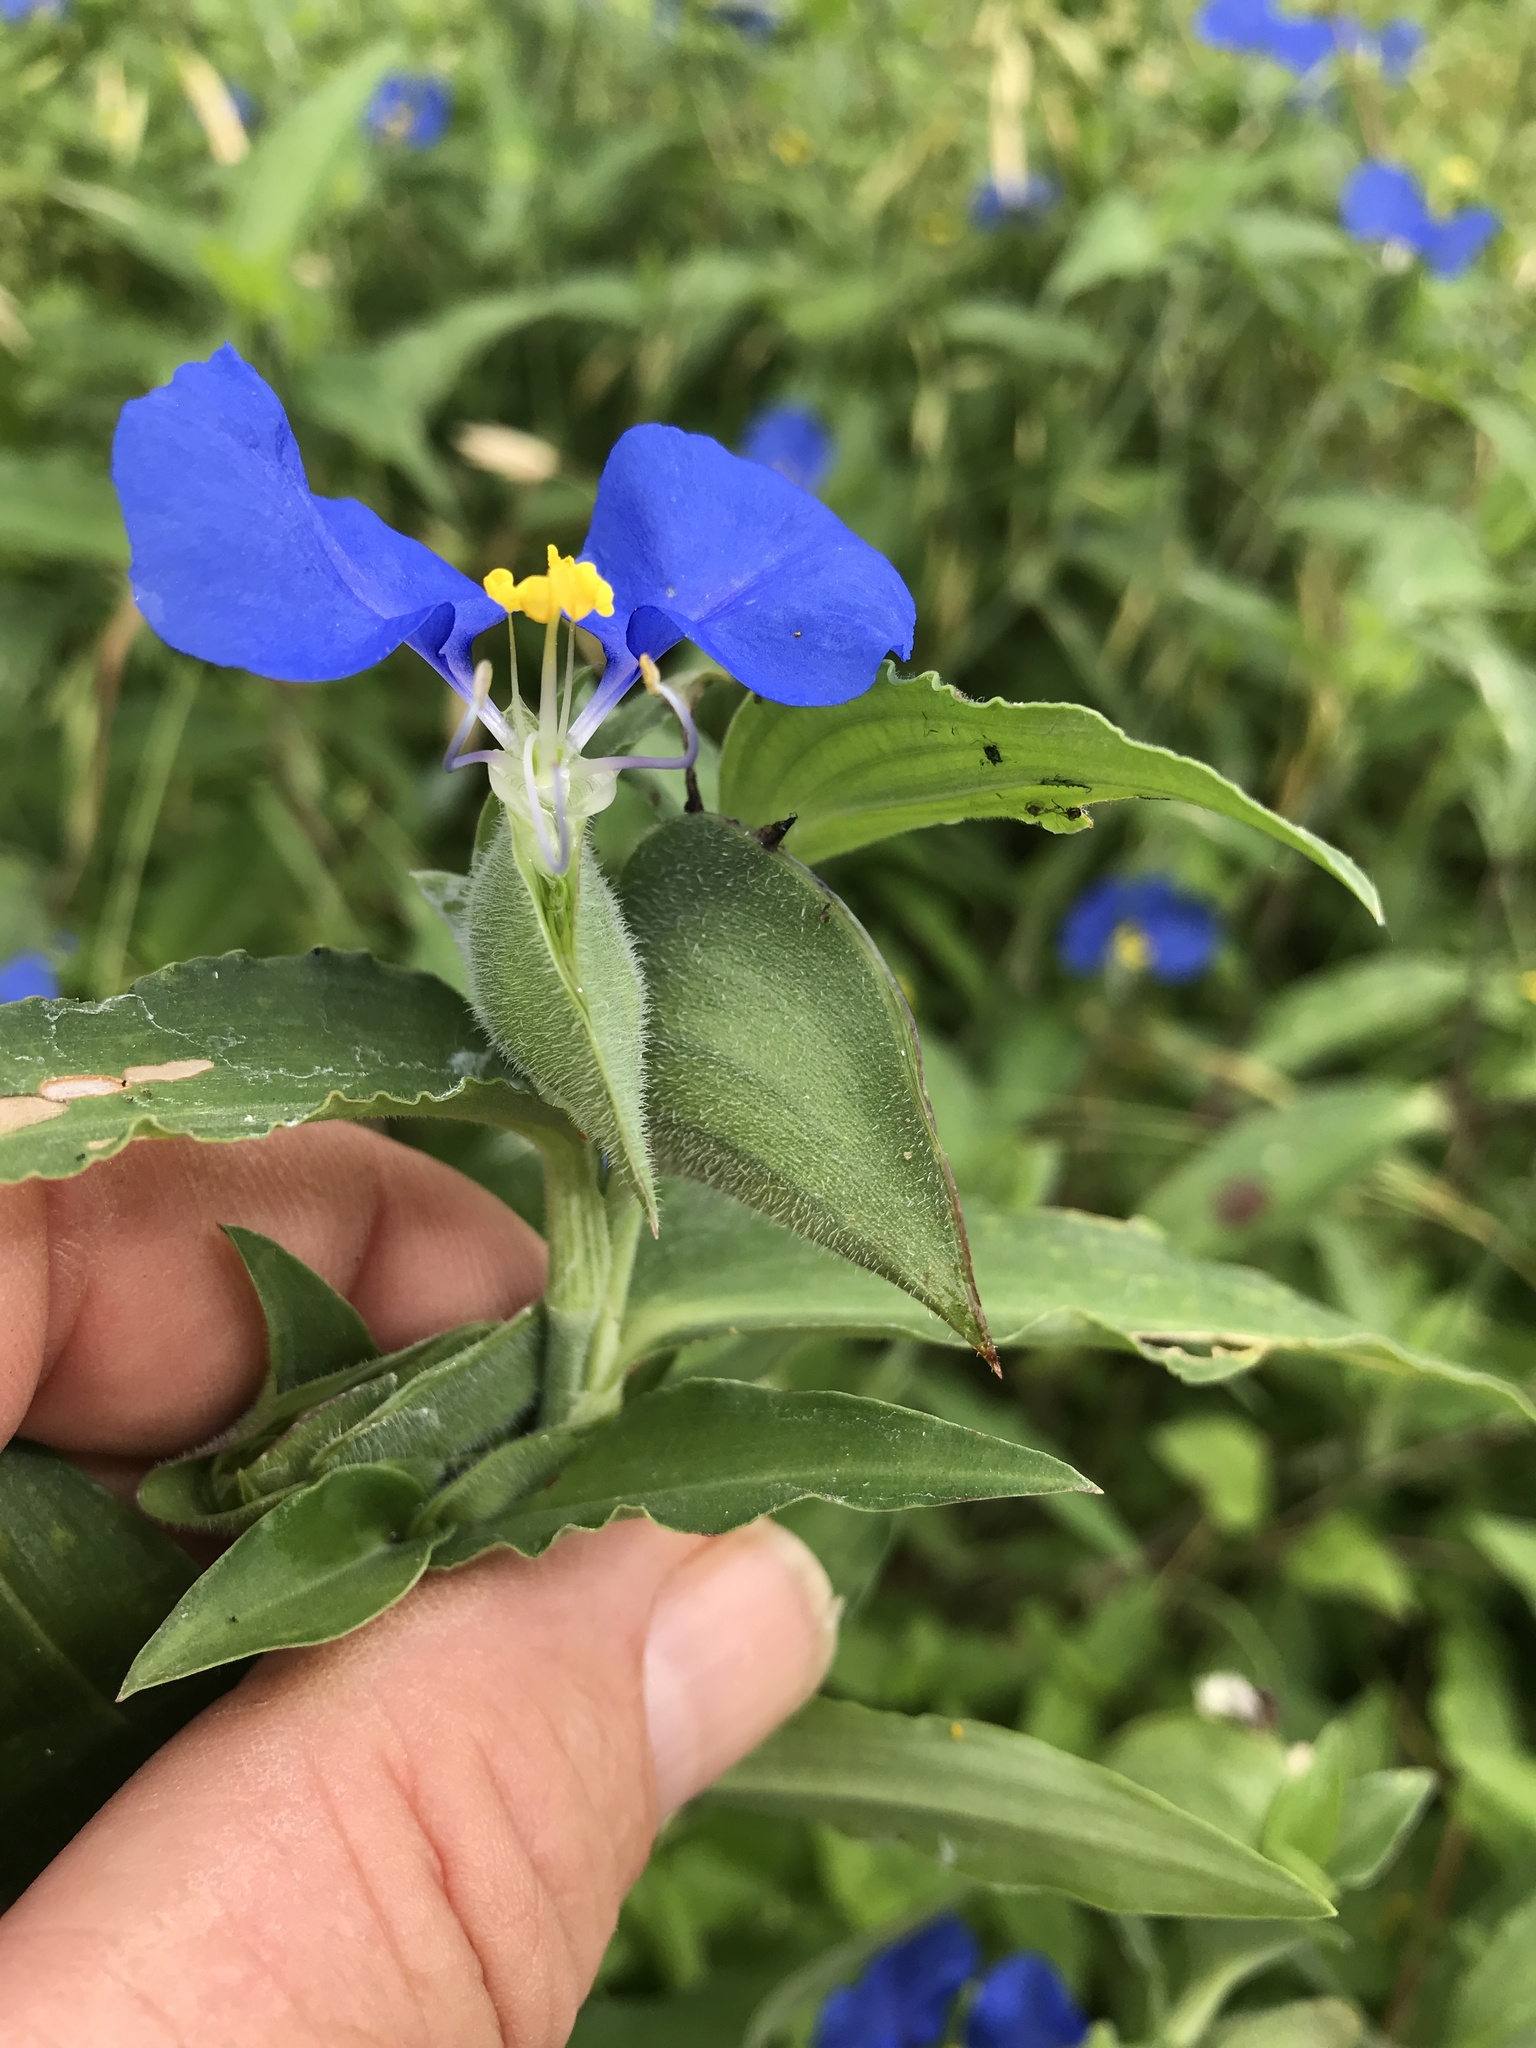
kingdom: Plantae
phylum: Tracheophyta
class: Liliopsida
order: Commelinales
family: Commelinaceae
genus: Commelina
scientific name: Commelina erecta
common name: Blousel blommetjie
